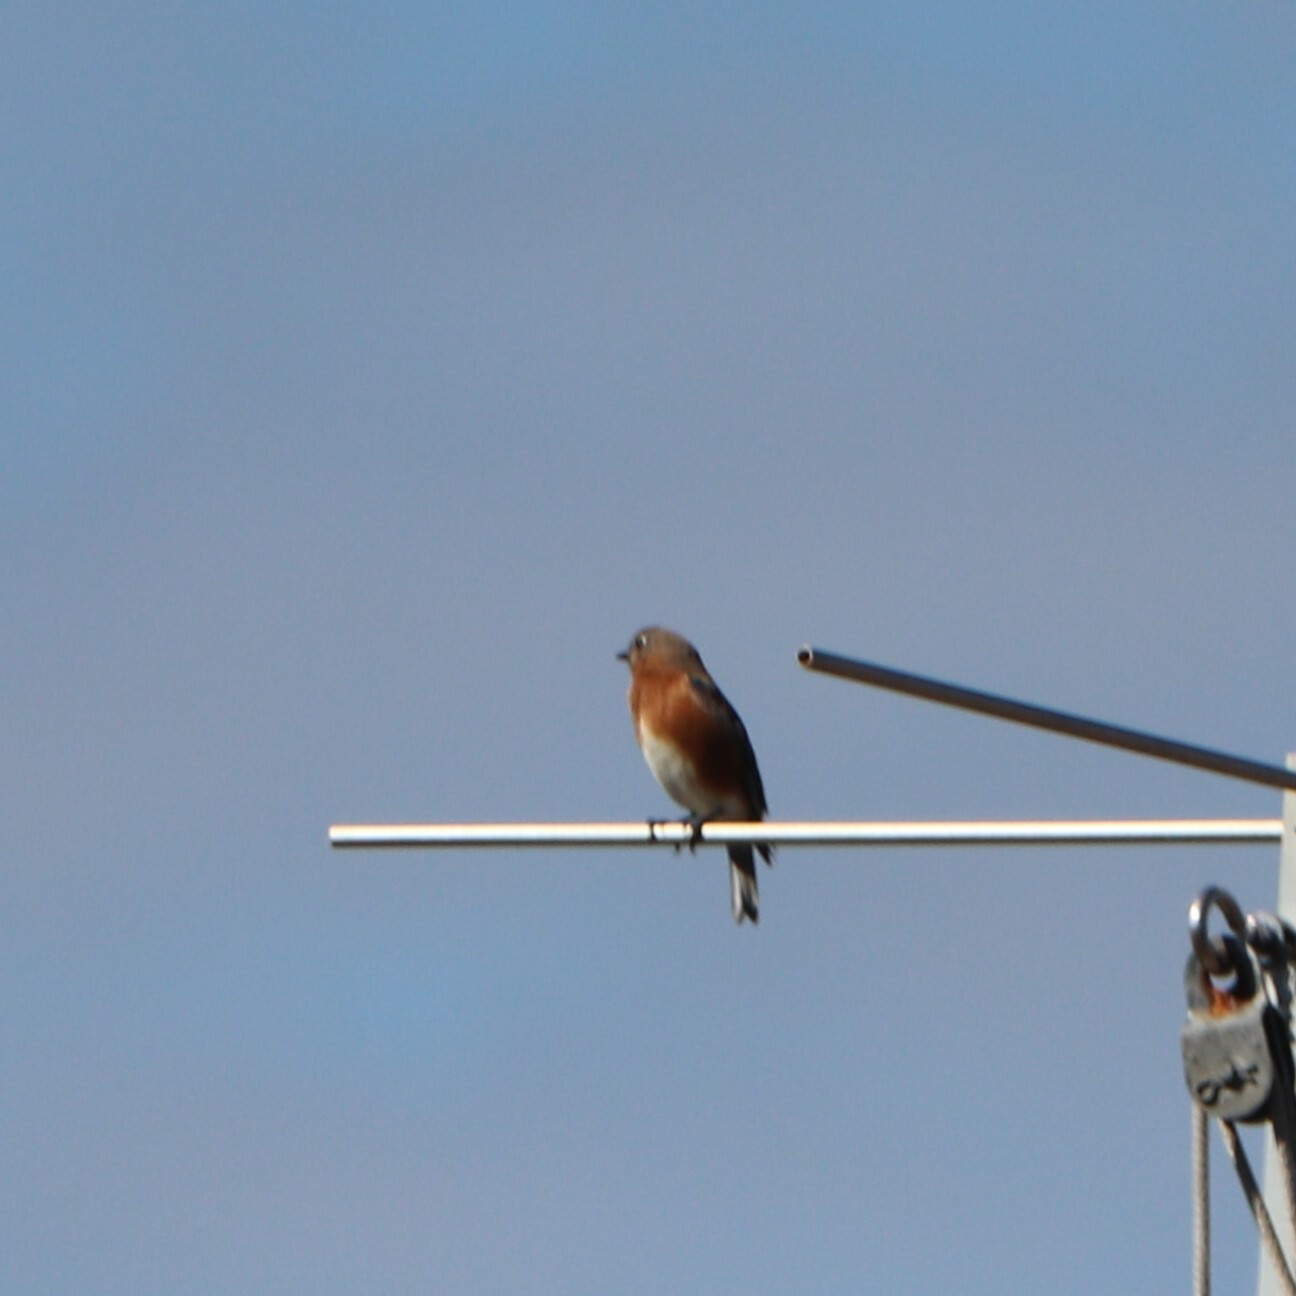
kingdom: Animalia
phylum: Chordata
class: Aves
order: Passeriformes
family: Turdidae
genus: Sialia
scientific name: Sialia sialis
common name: Eastern bluebird
